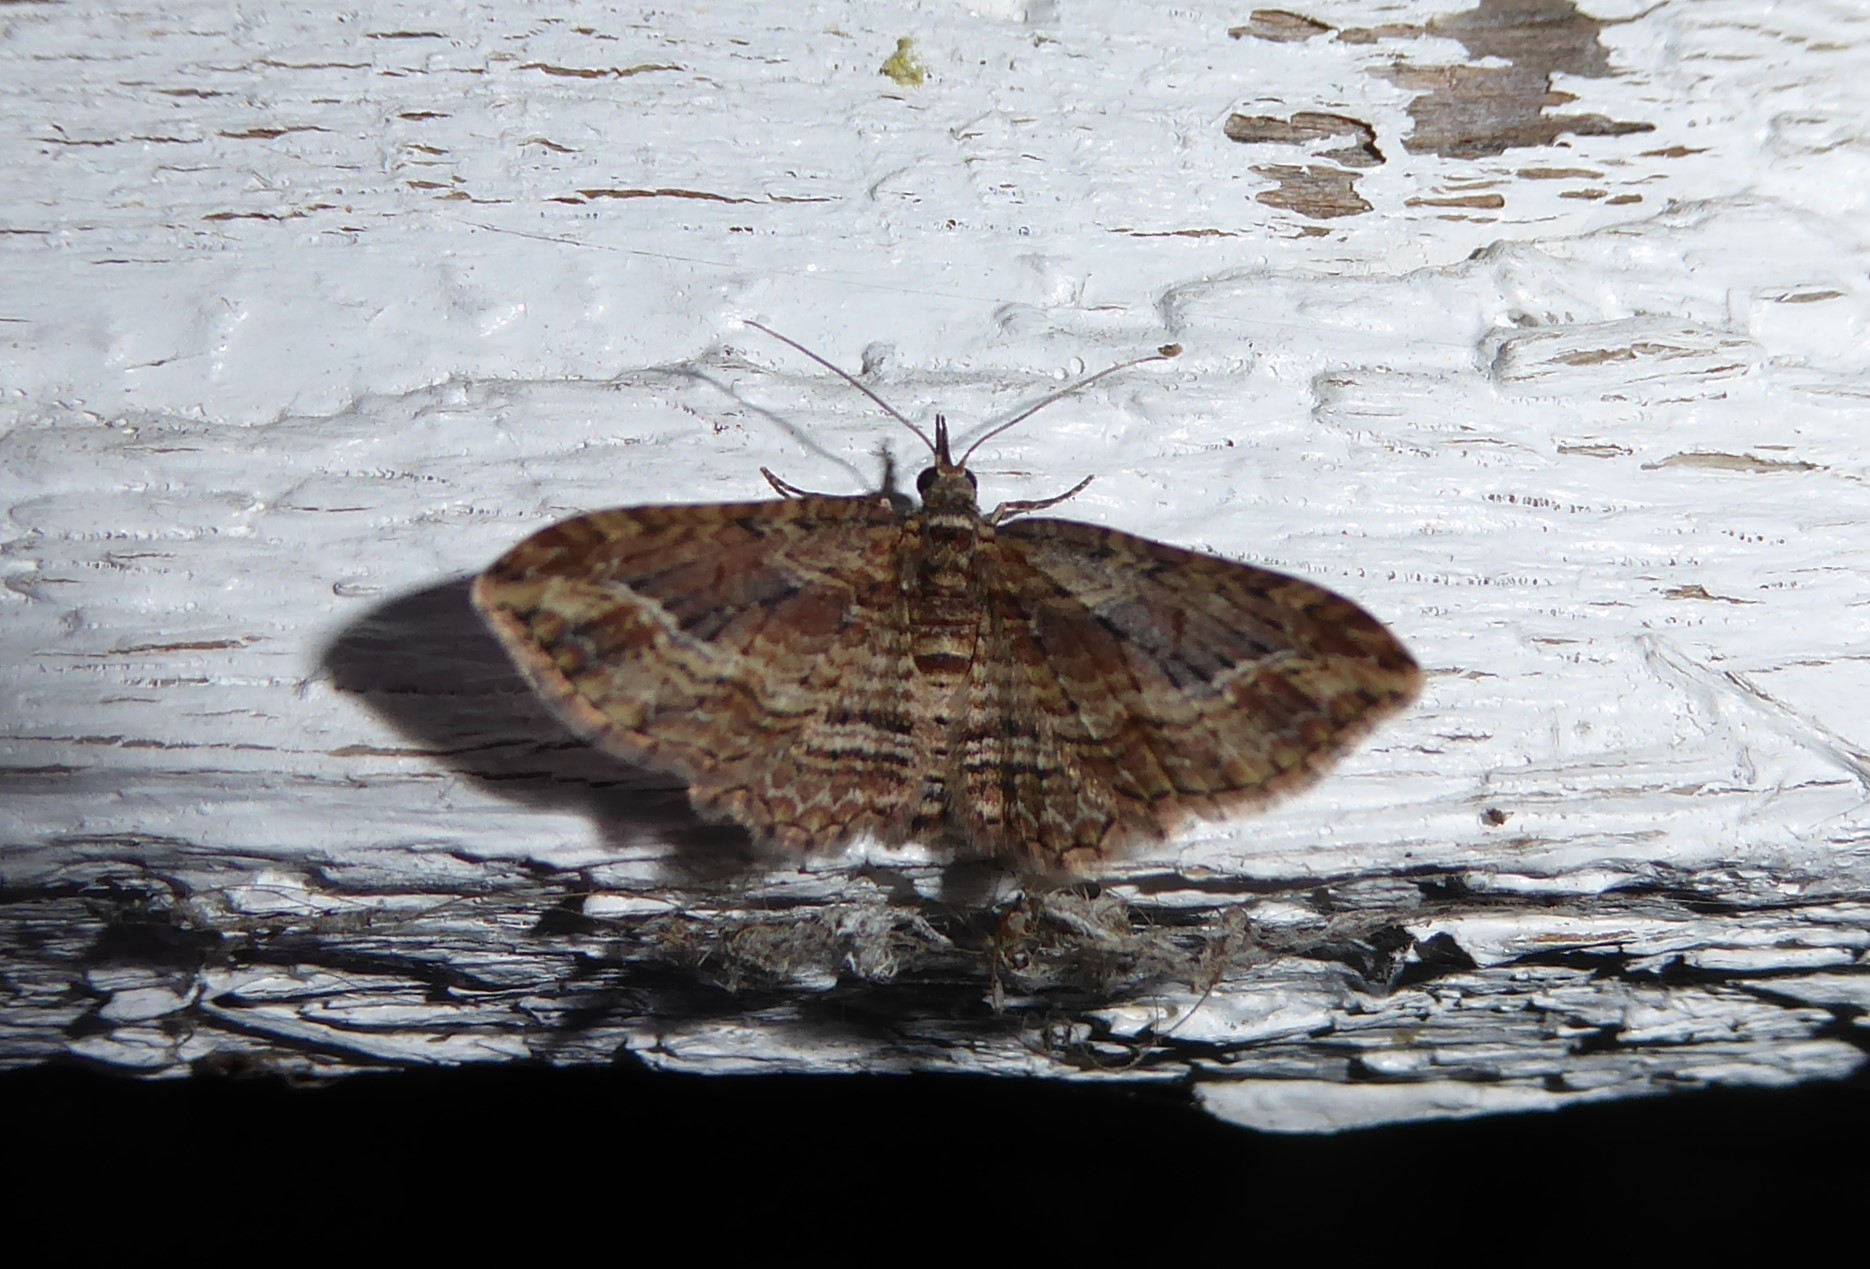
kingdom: Animalia
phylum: Arthropoda
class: Insecta
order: Lepidoptera
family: Geometridae
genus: Chloroclystis
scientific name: Chloroclystis filata
